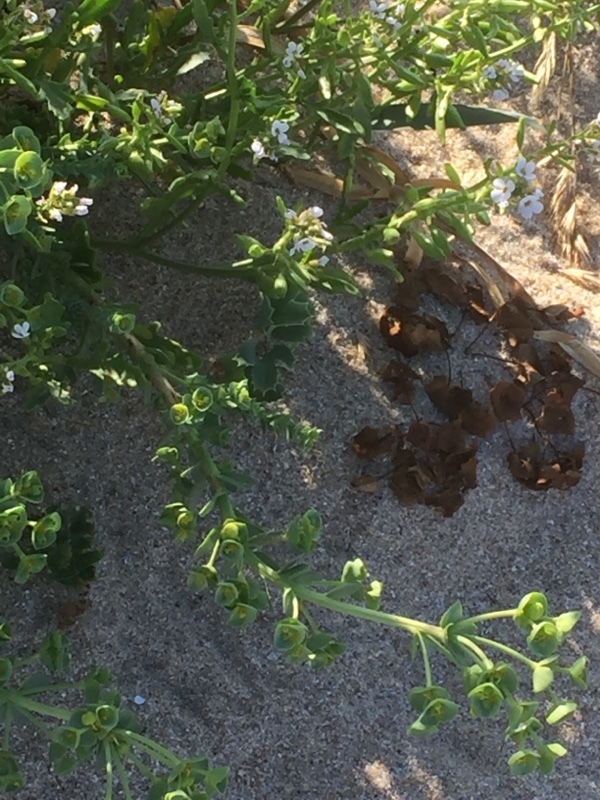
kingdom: Plantae
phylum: Tracheophyta
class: Magnoliopsida
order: Malpighiales
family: Euphorbiaceae
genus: Euphorbia
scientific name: Euphorbia paralias
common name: Sea spurge
